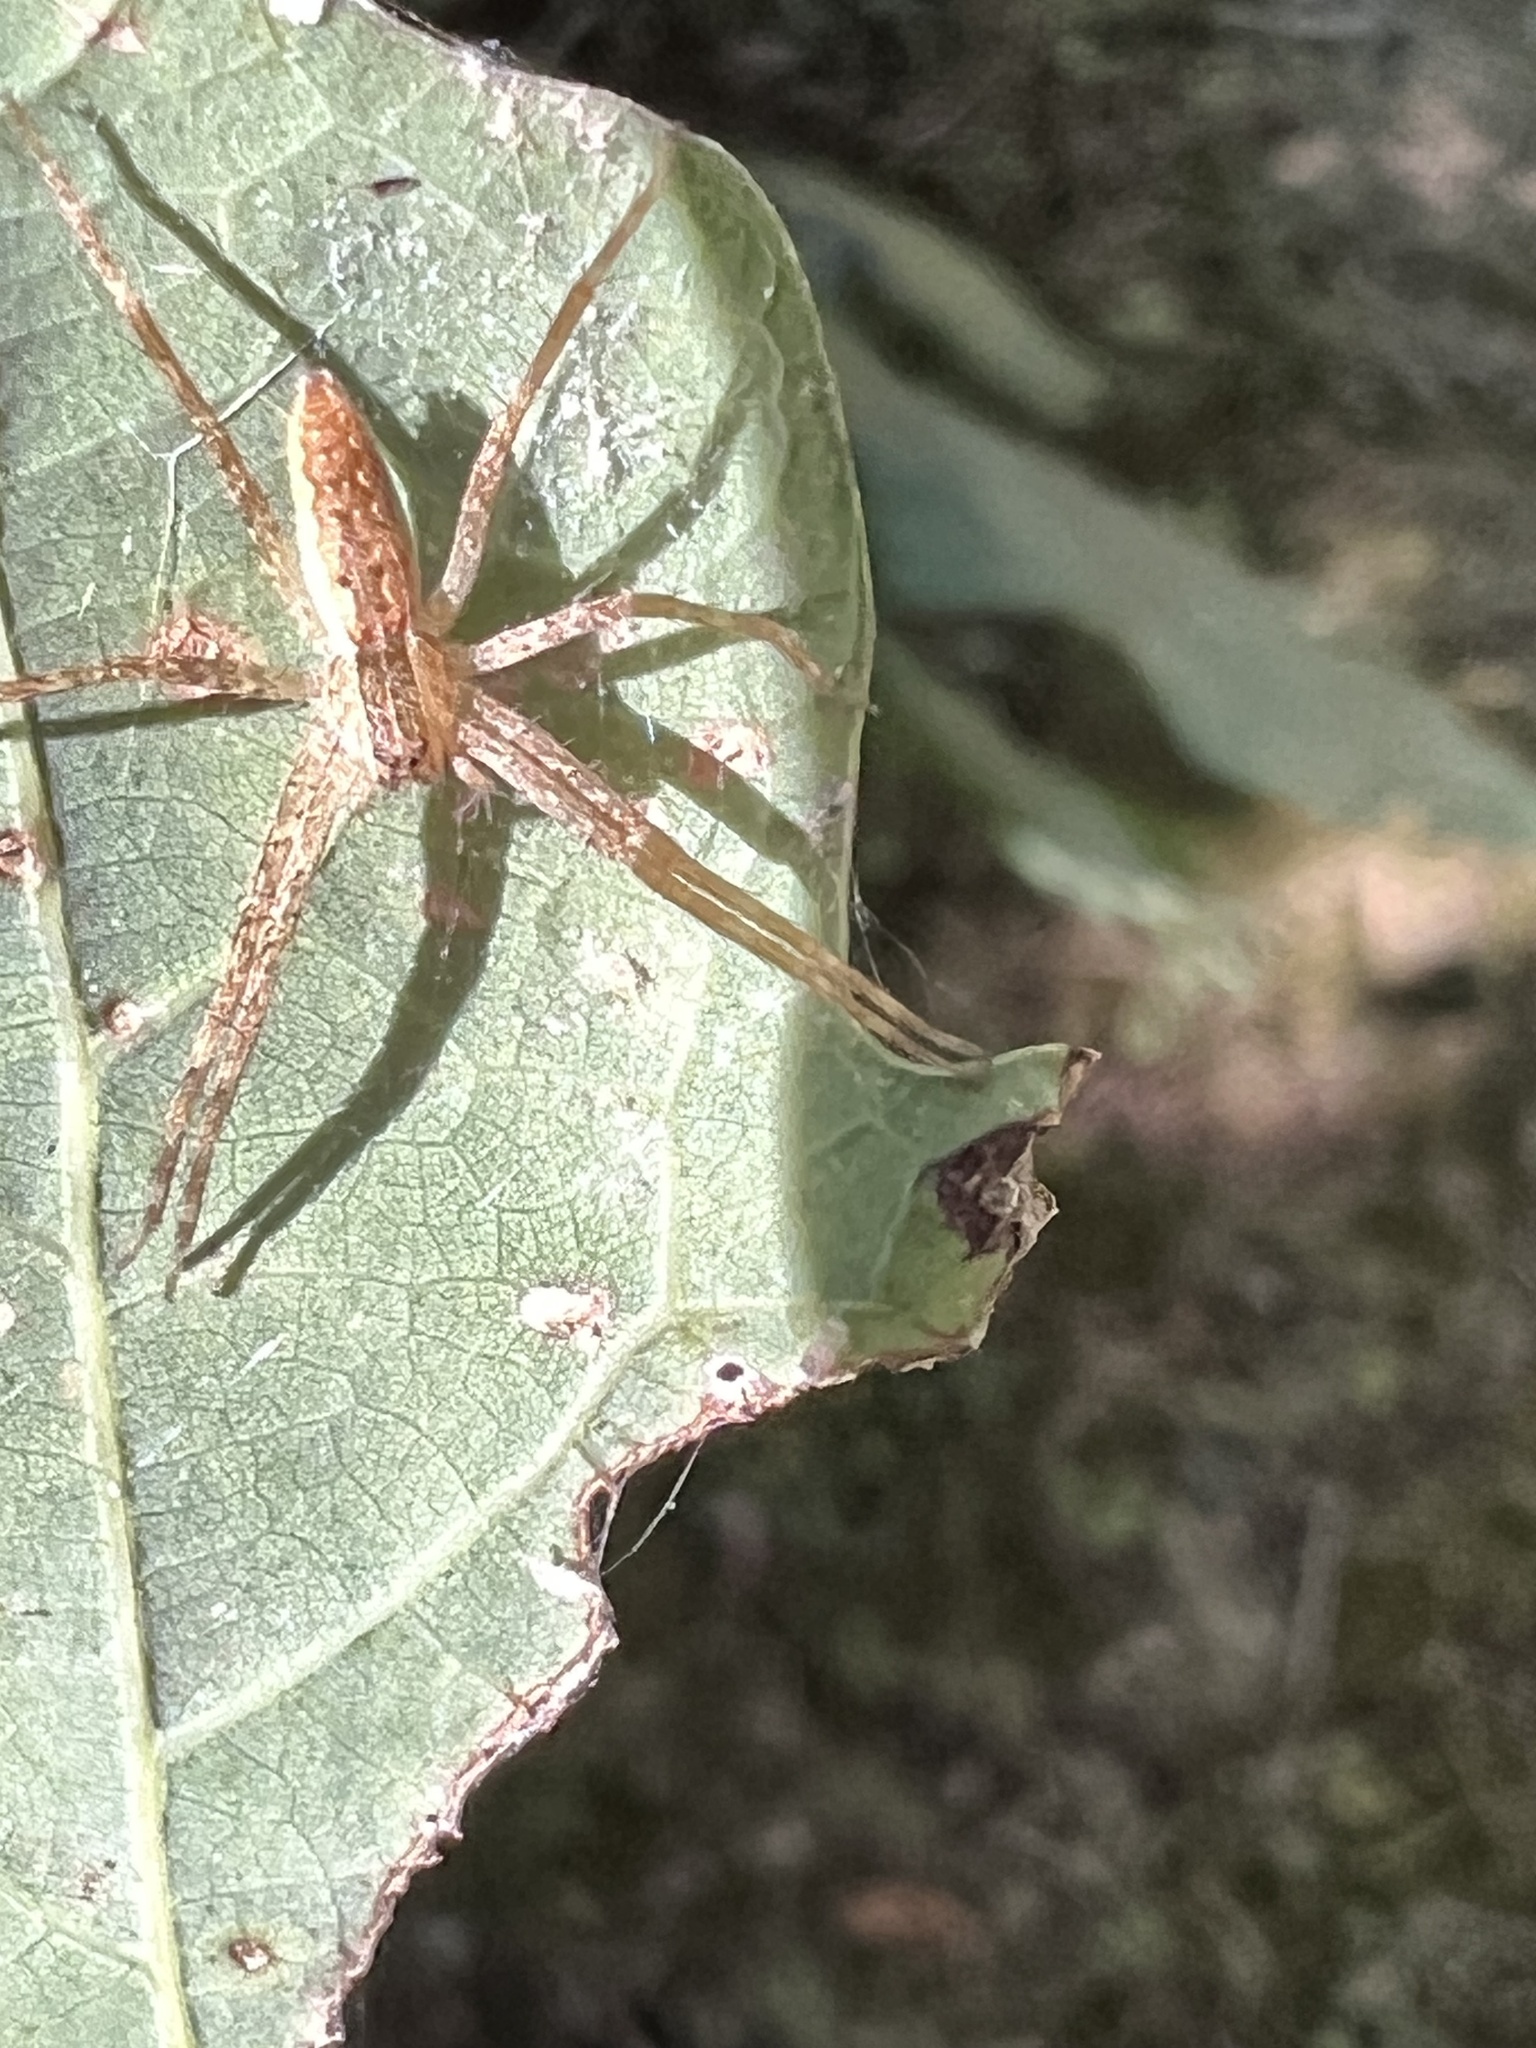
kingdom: Animalia
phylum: Arthropoda
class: Arachnida
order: Araneae
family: Pisauridae
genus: Pisaurina
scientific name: Pisaurina mira
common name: American nursery web spider
